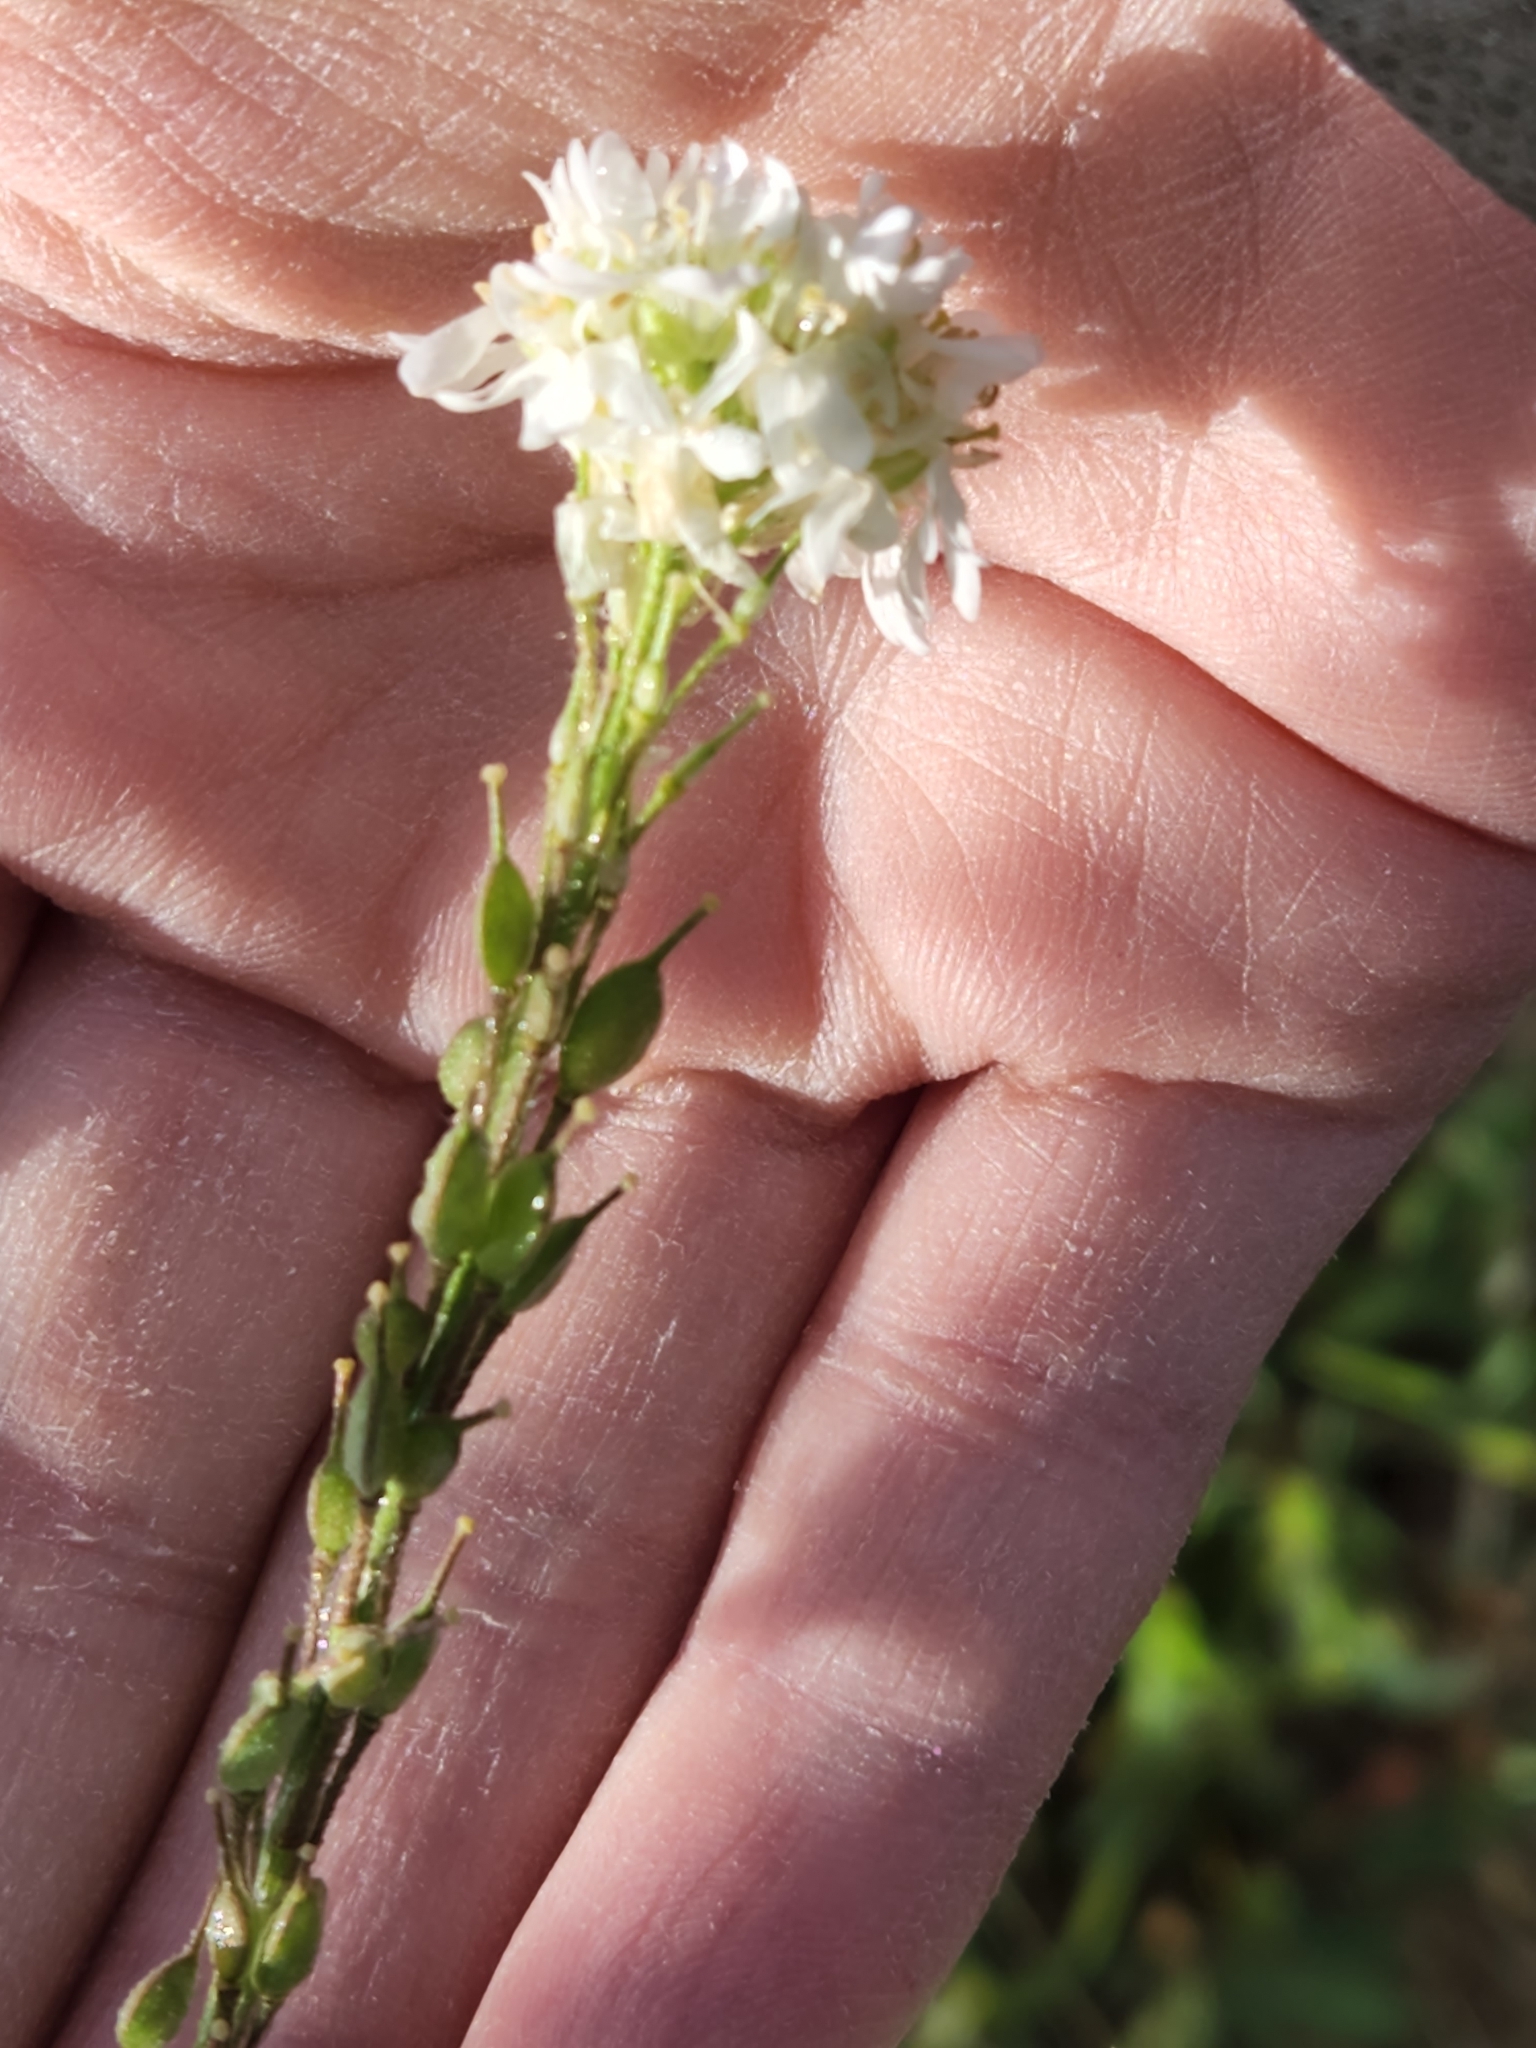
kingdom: Plantae
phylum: Tracheophyta
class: Magnoliopsida
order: Brassicales
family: Brassicaceae
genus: Berteroa
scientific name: Berteroa incana
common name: Hoary alison
